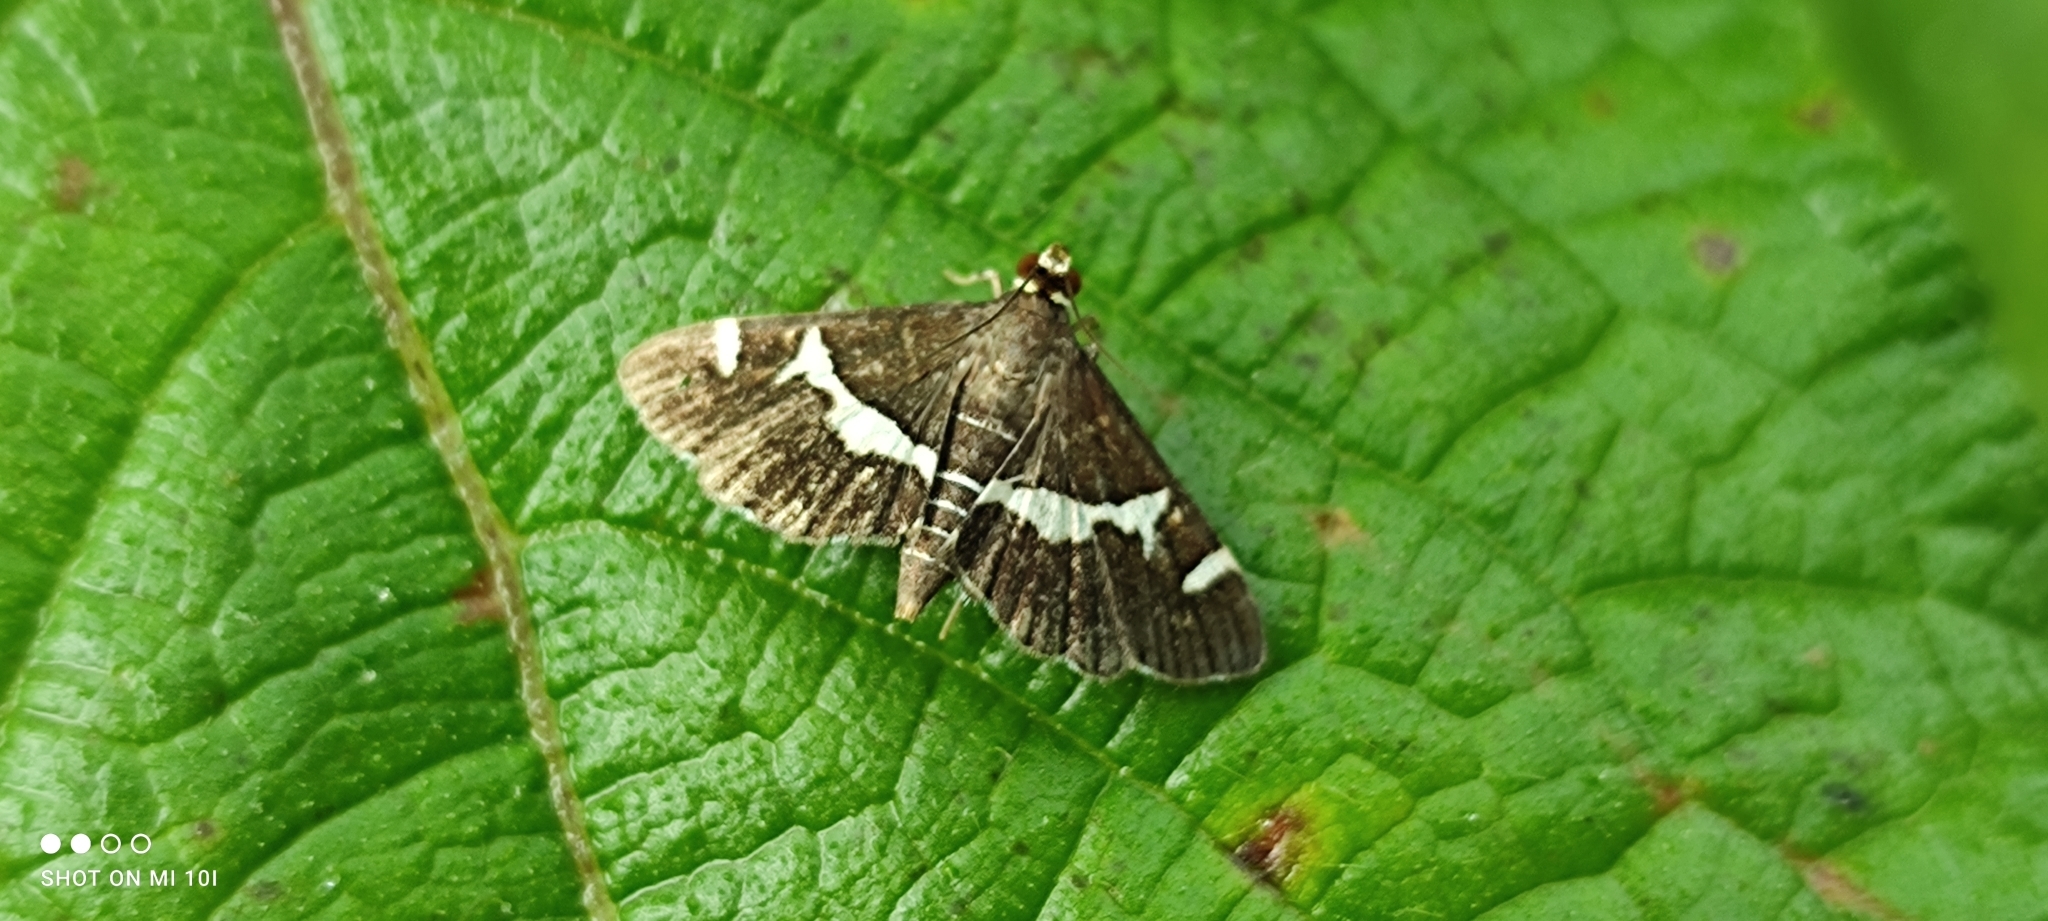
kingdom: Animalia
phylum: Arthropoda
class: Insecta
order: Lepidoptera
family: Crambidae
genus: Spoladea
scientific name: Spoladea recurvalis
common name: Beet webworm moth
